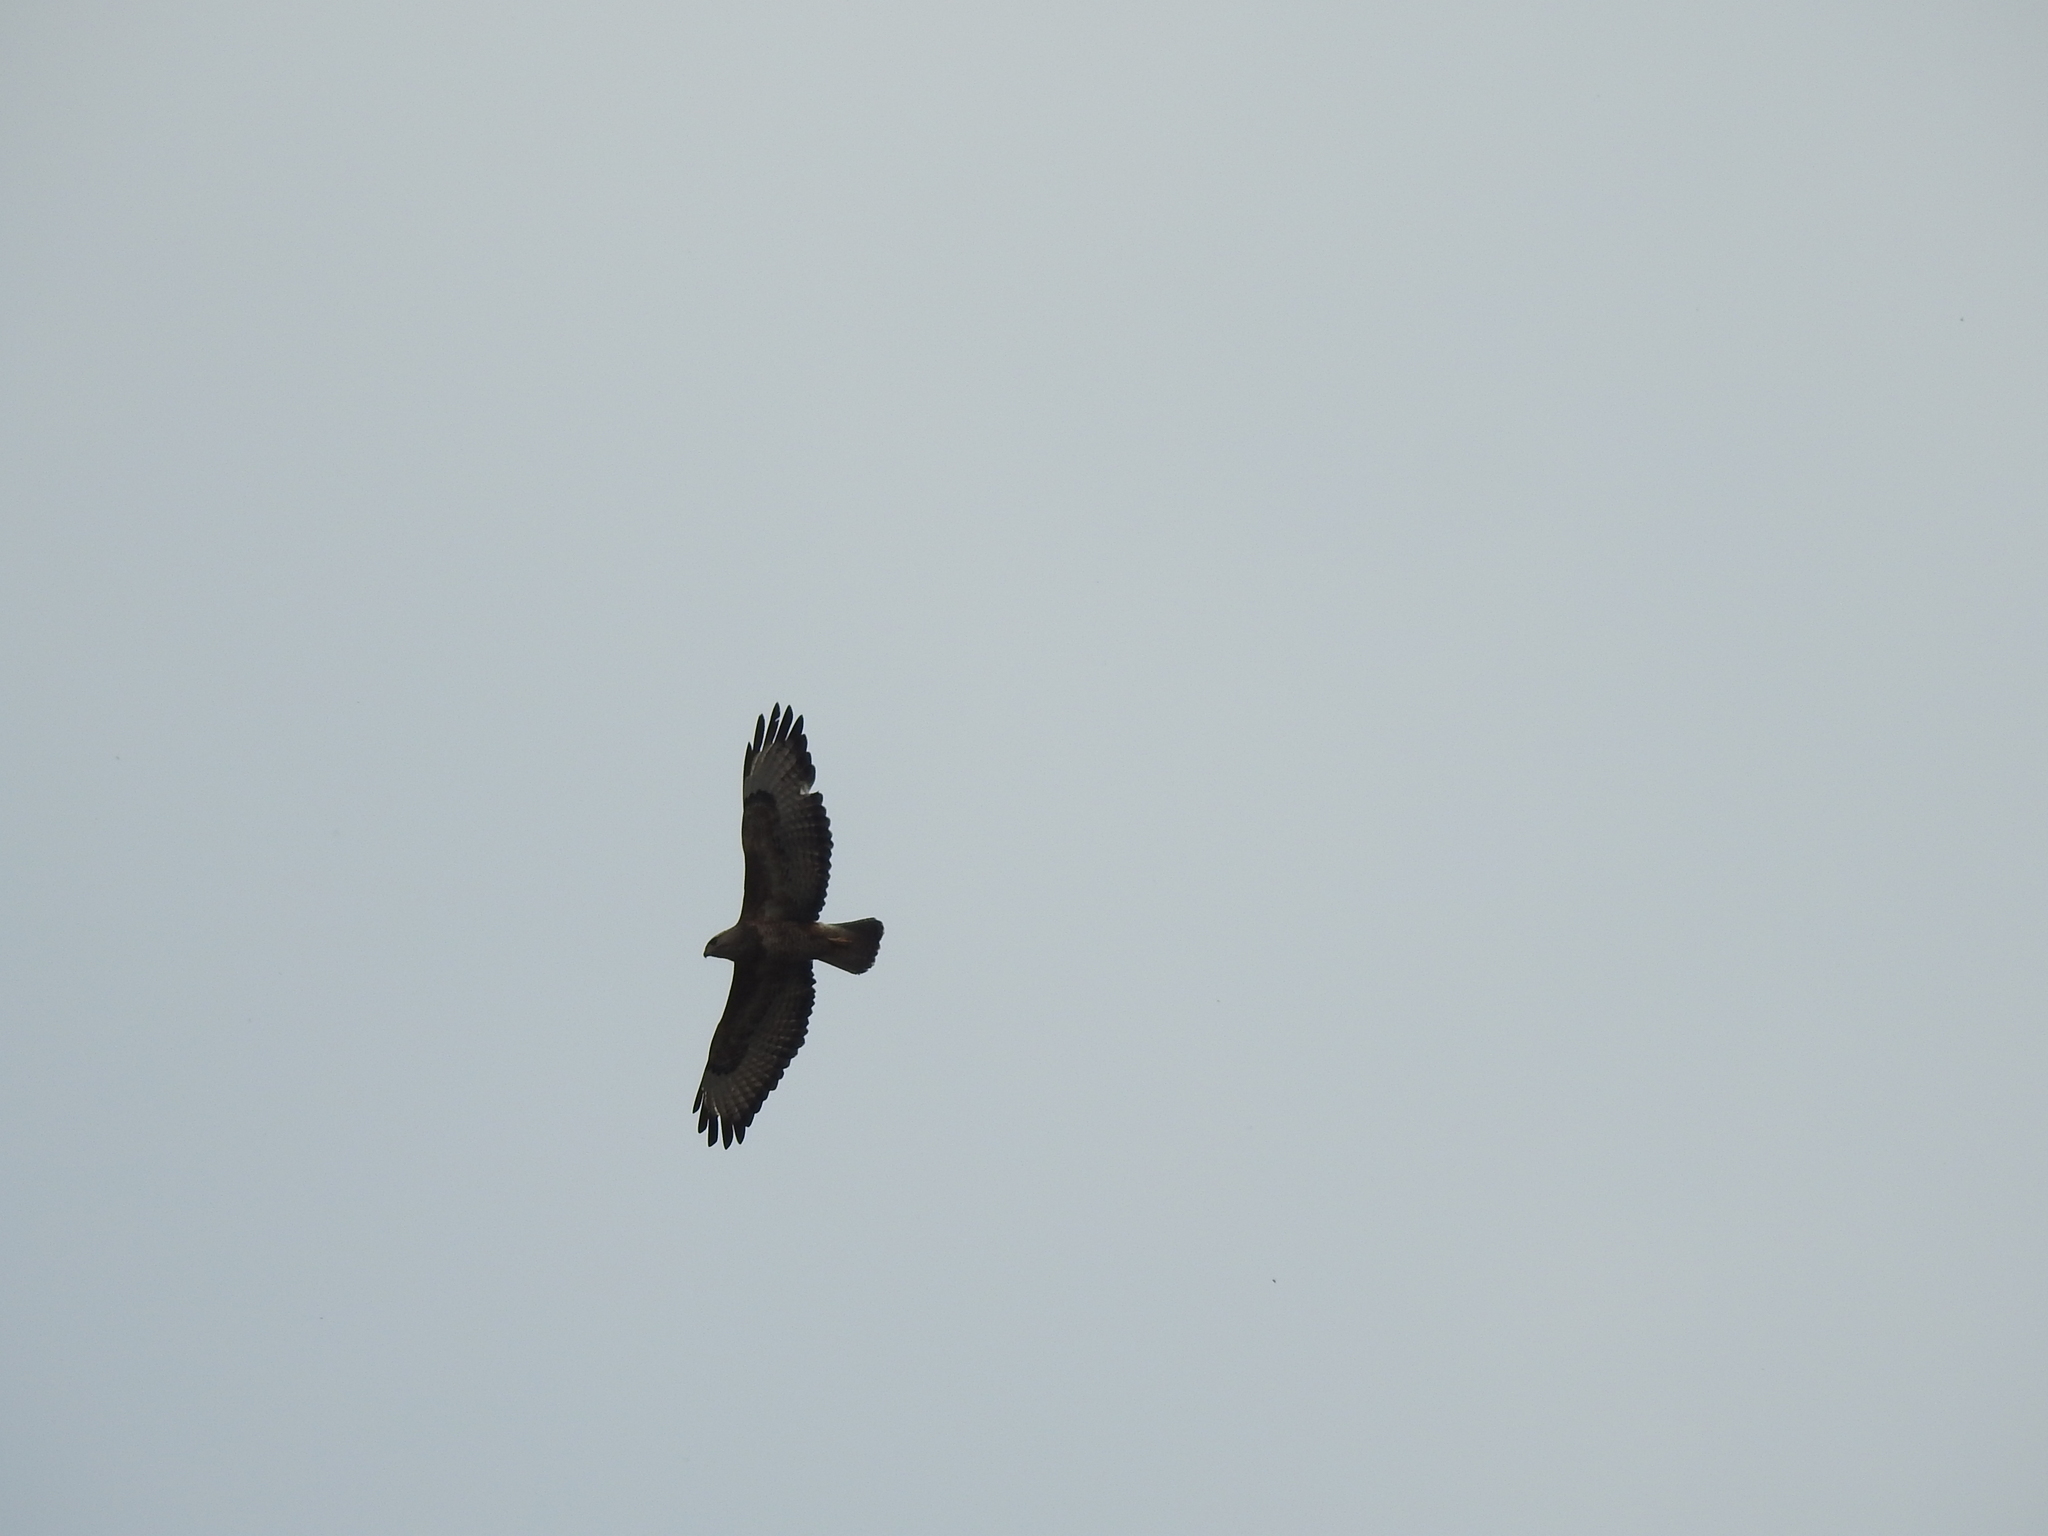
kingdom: Animalia
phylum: Chordata
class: Aves
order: Accipitriformes
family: Accipitridae
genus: Buteo
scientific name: Buteo buteo
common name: Common buzzard
